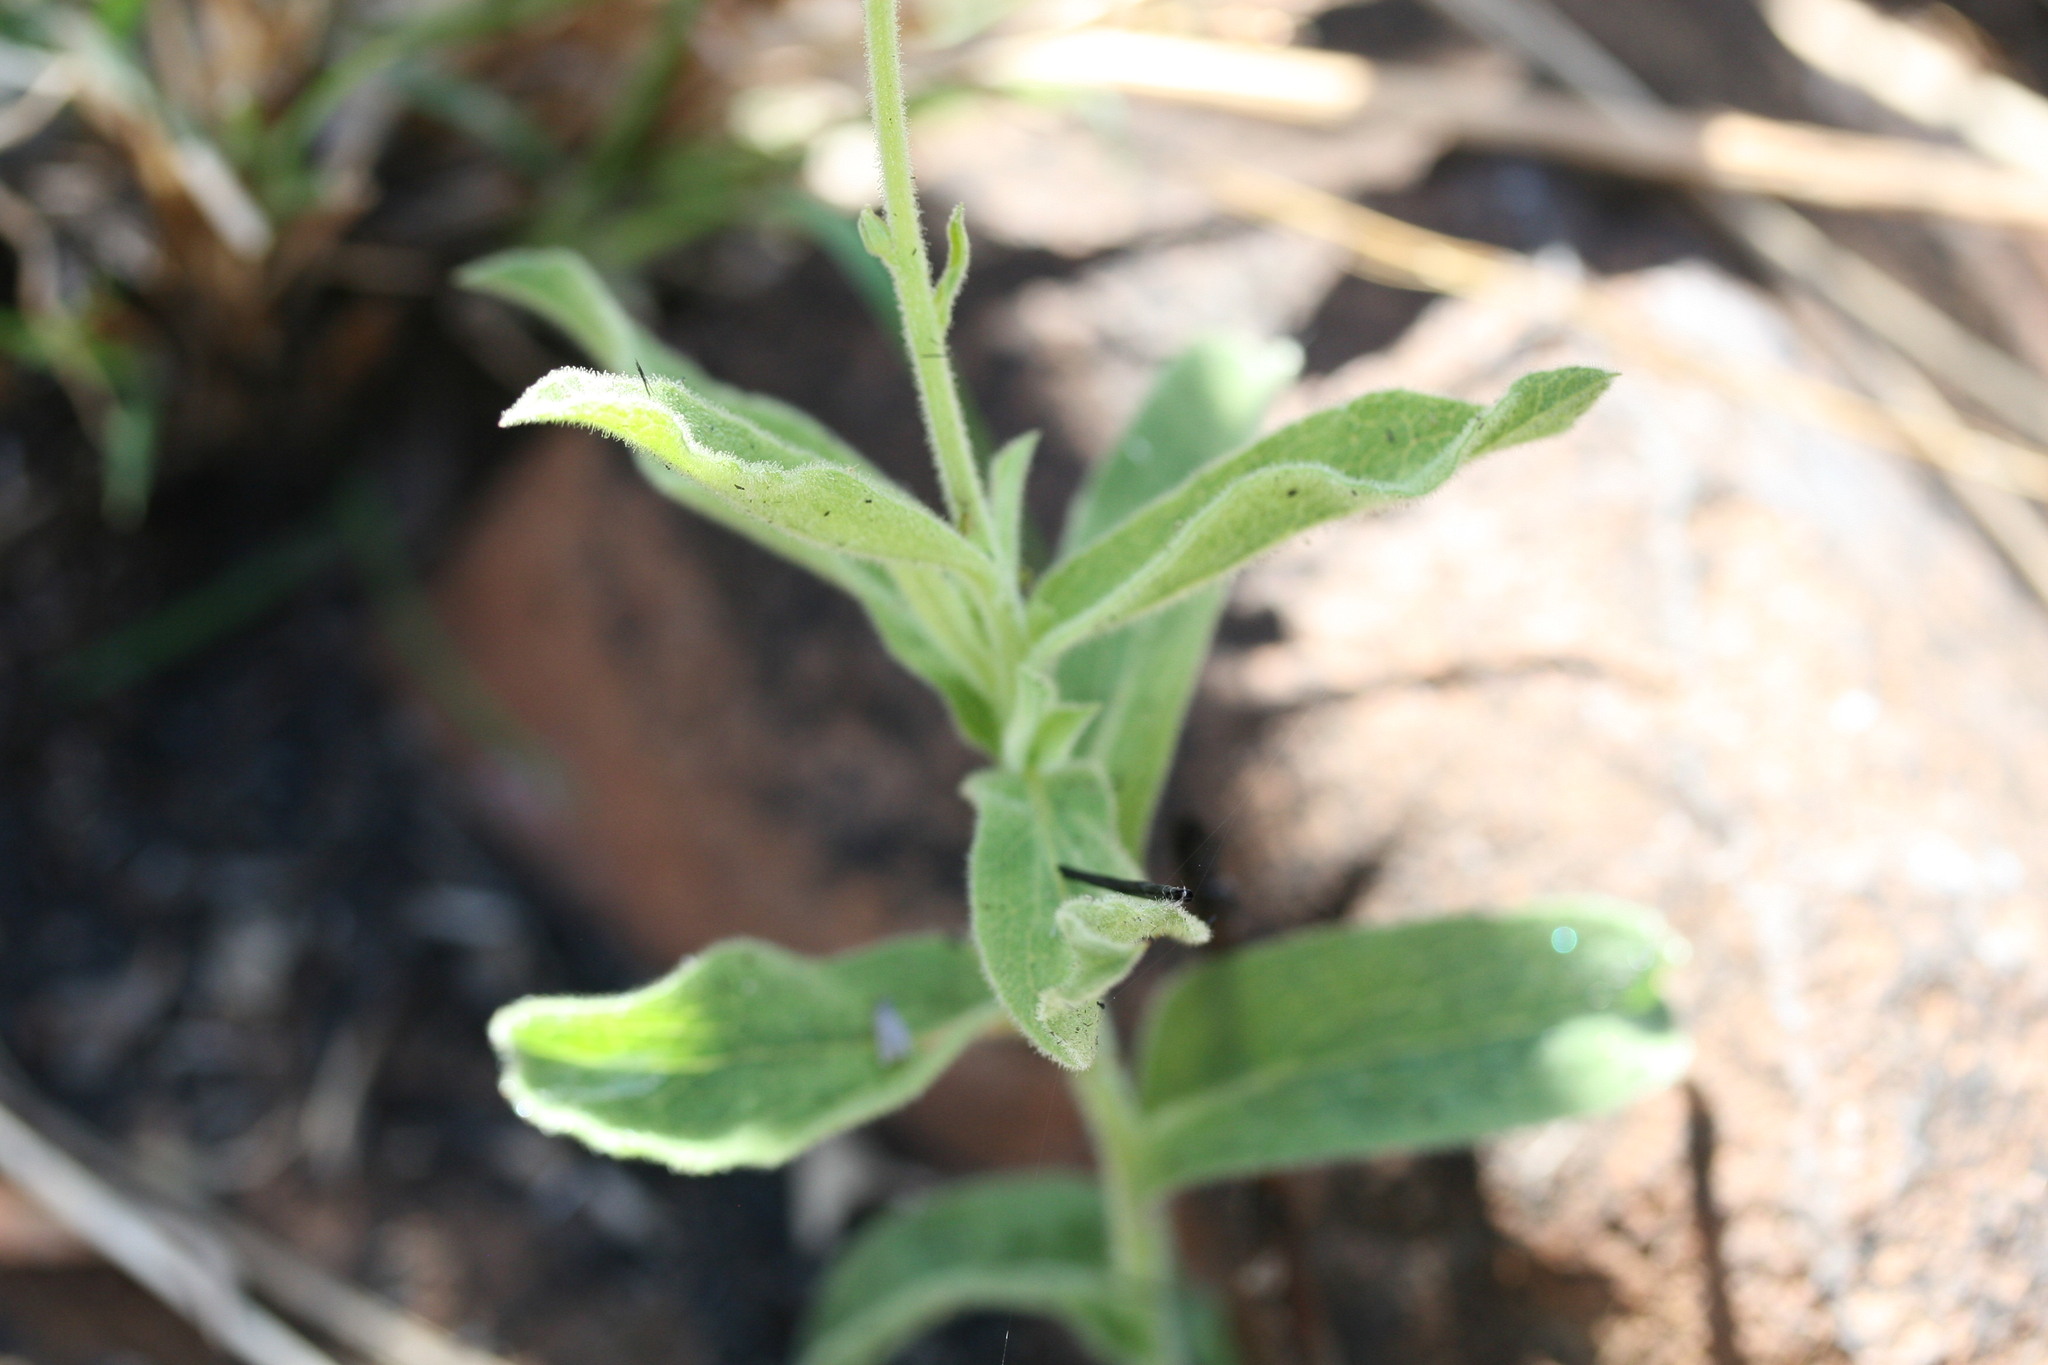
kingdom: Plantae
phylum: Tracheophyta
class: Magnoliopsida
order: Asterales
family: Asteraceae
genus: Olearia
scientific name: Olearia arguta
